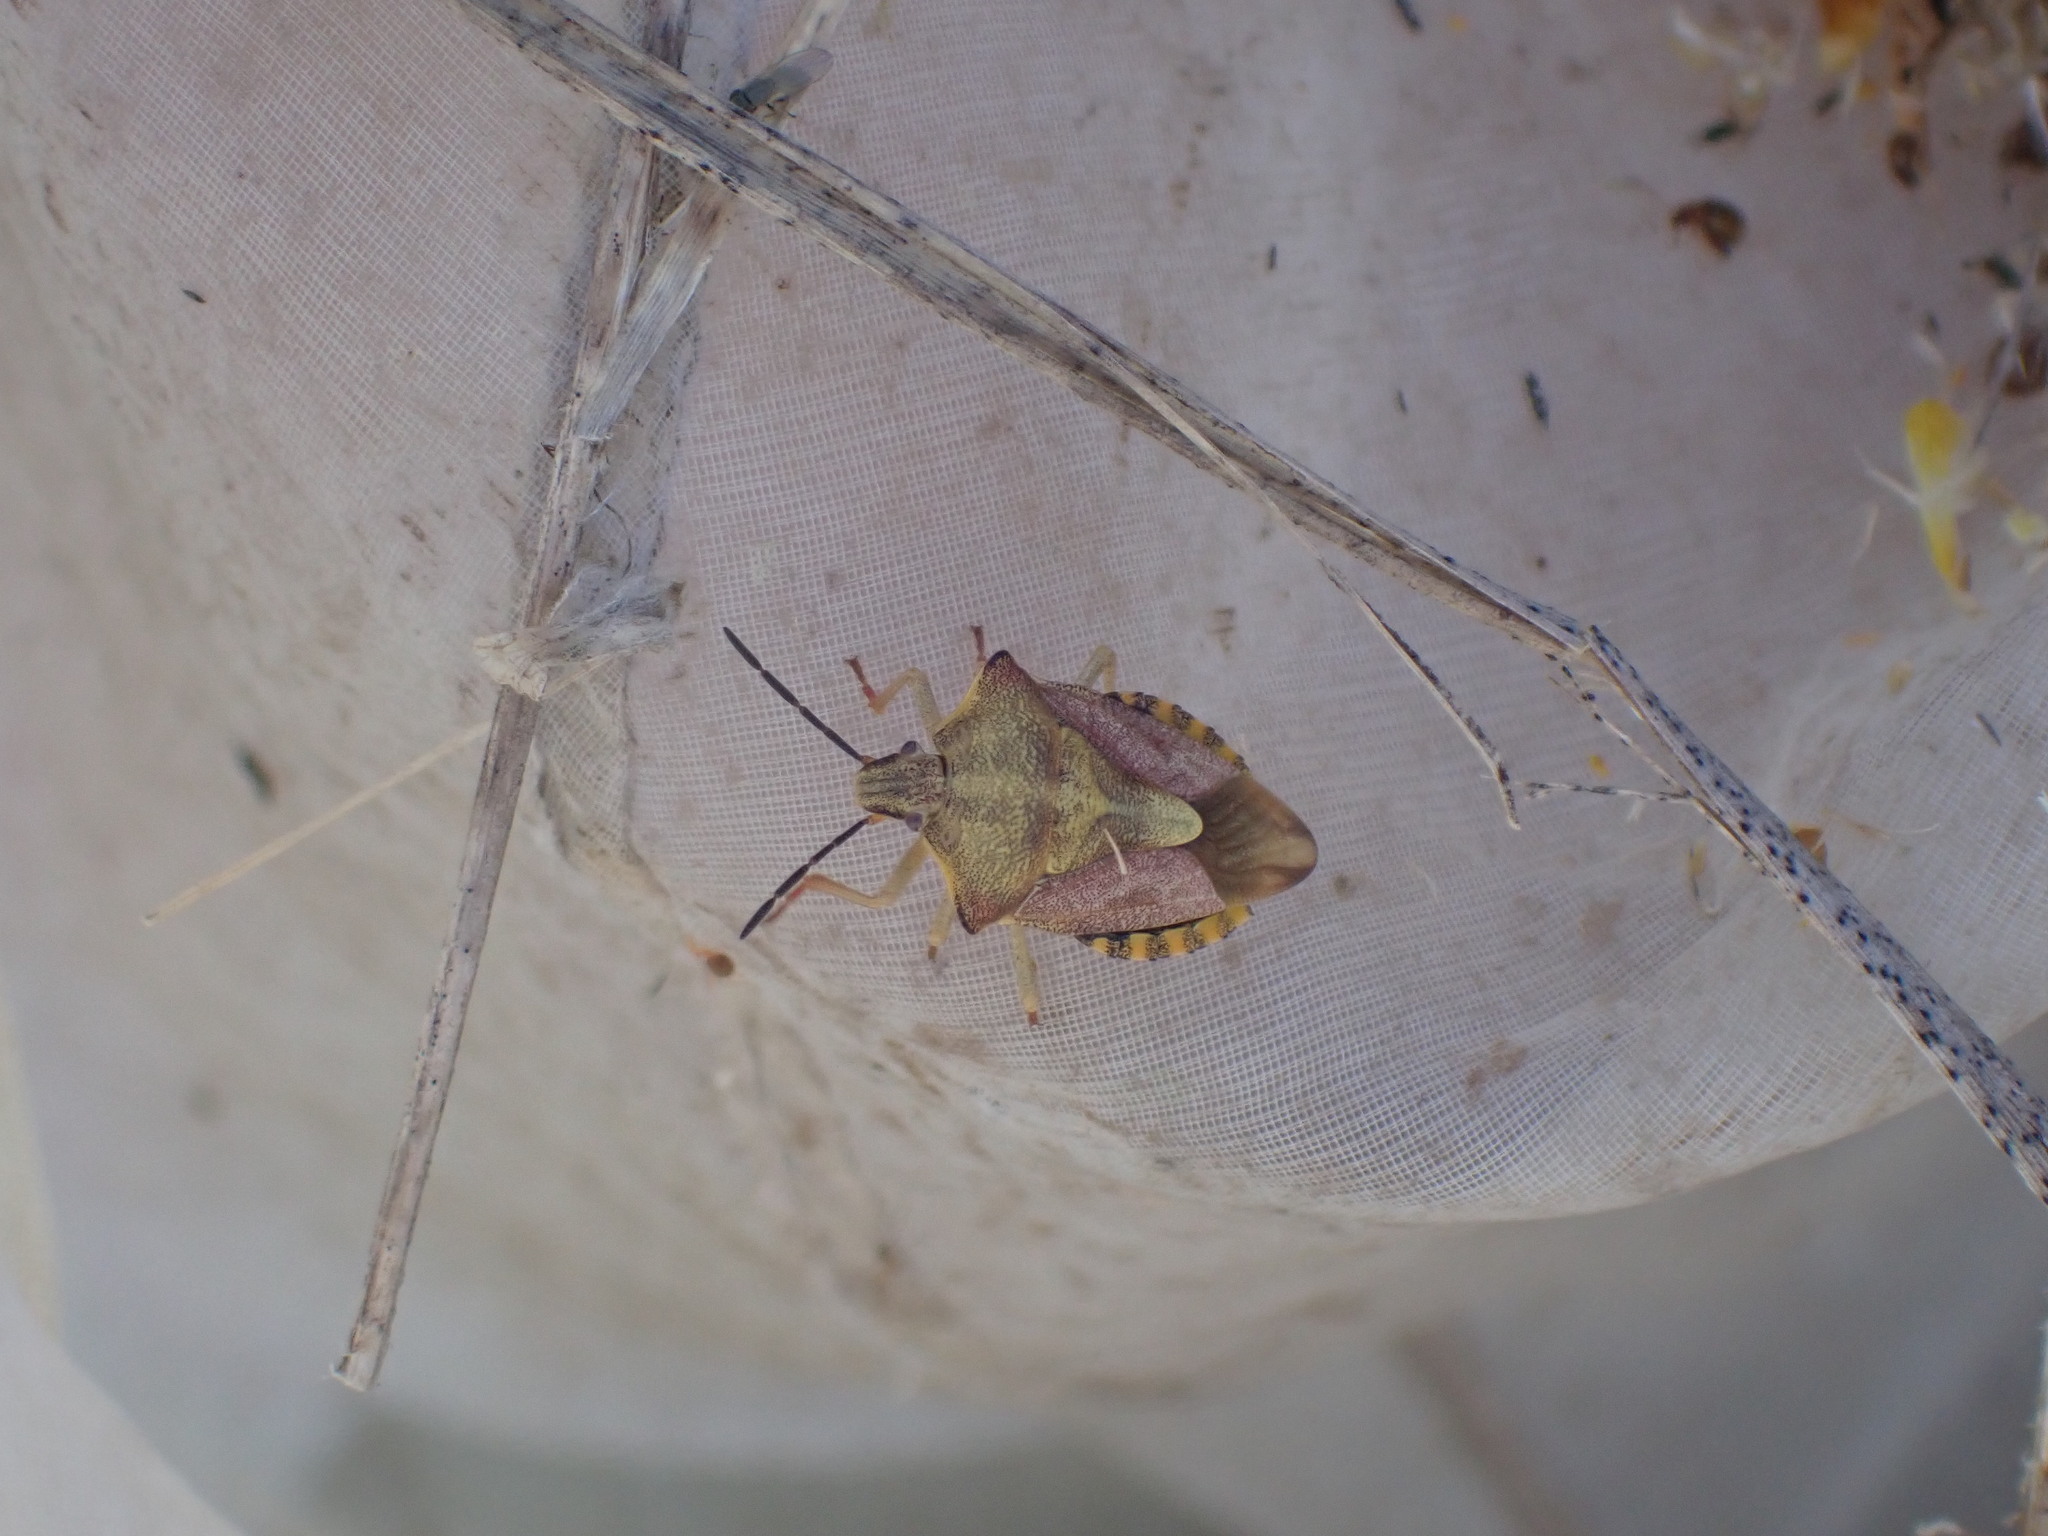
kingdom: Animalia
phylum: Arthropoda
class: Insecta
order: Hemiptera
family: Pentatomidae
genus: Carpocoris
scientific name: Carpocoris purpureipennis
